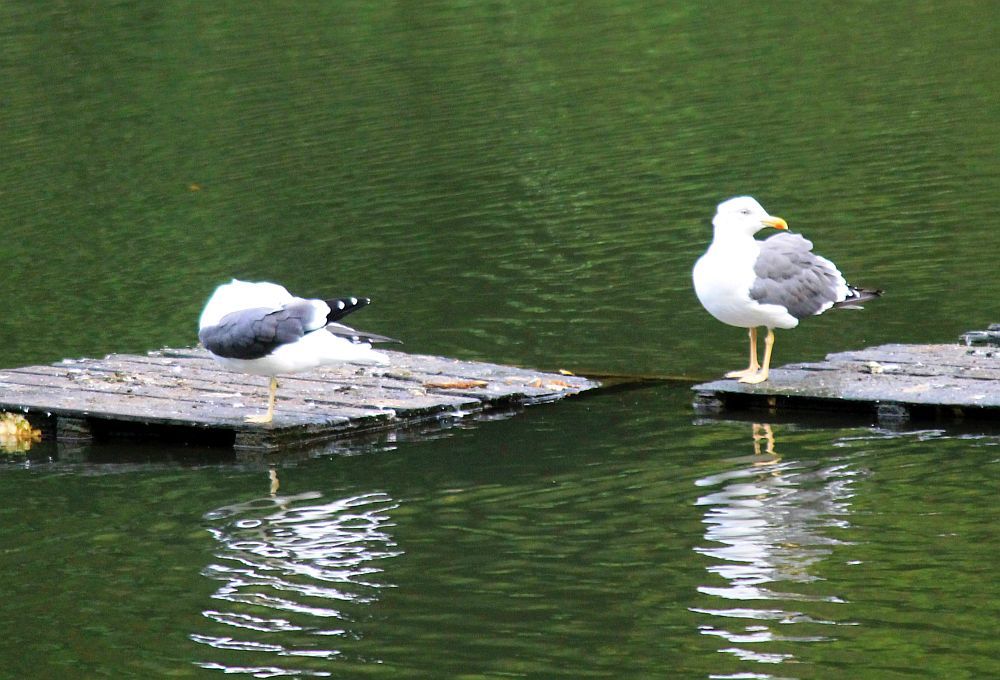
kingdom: Animalia
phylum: Chordata
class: Aves
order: Charadriiformes
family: Laridae
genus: Larus
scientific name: Larus fuscus
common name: Lesser black-backed gull
